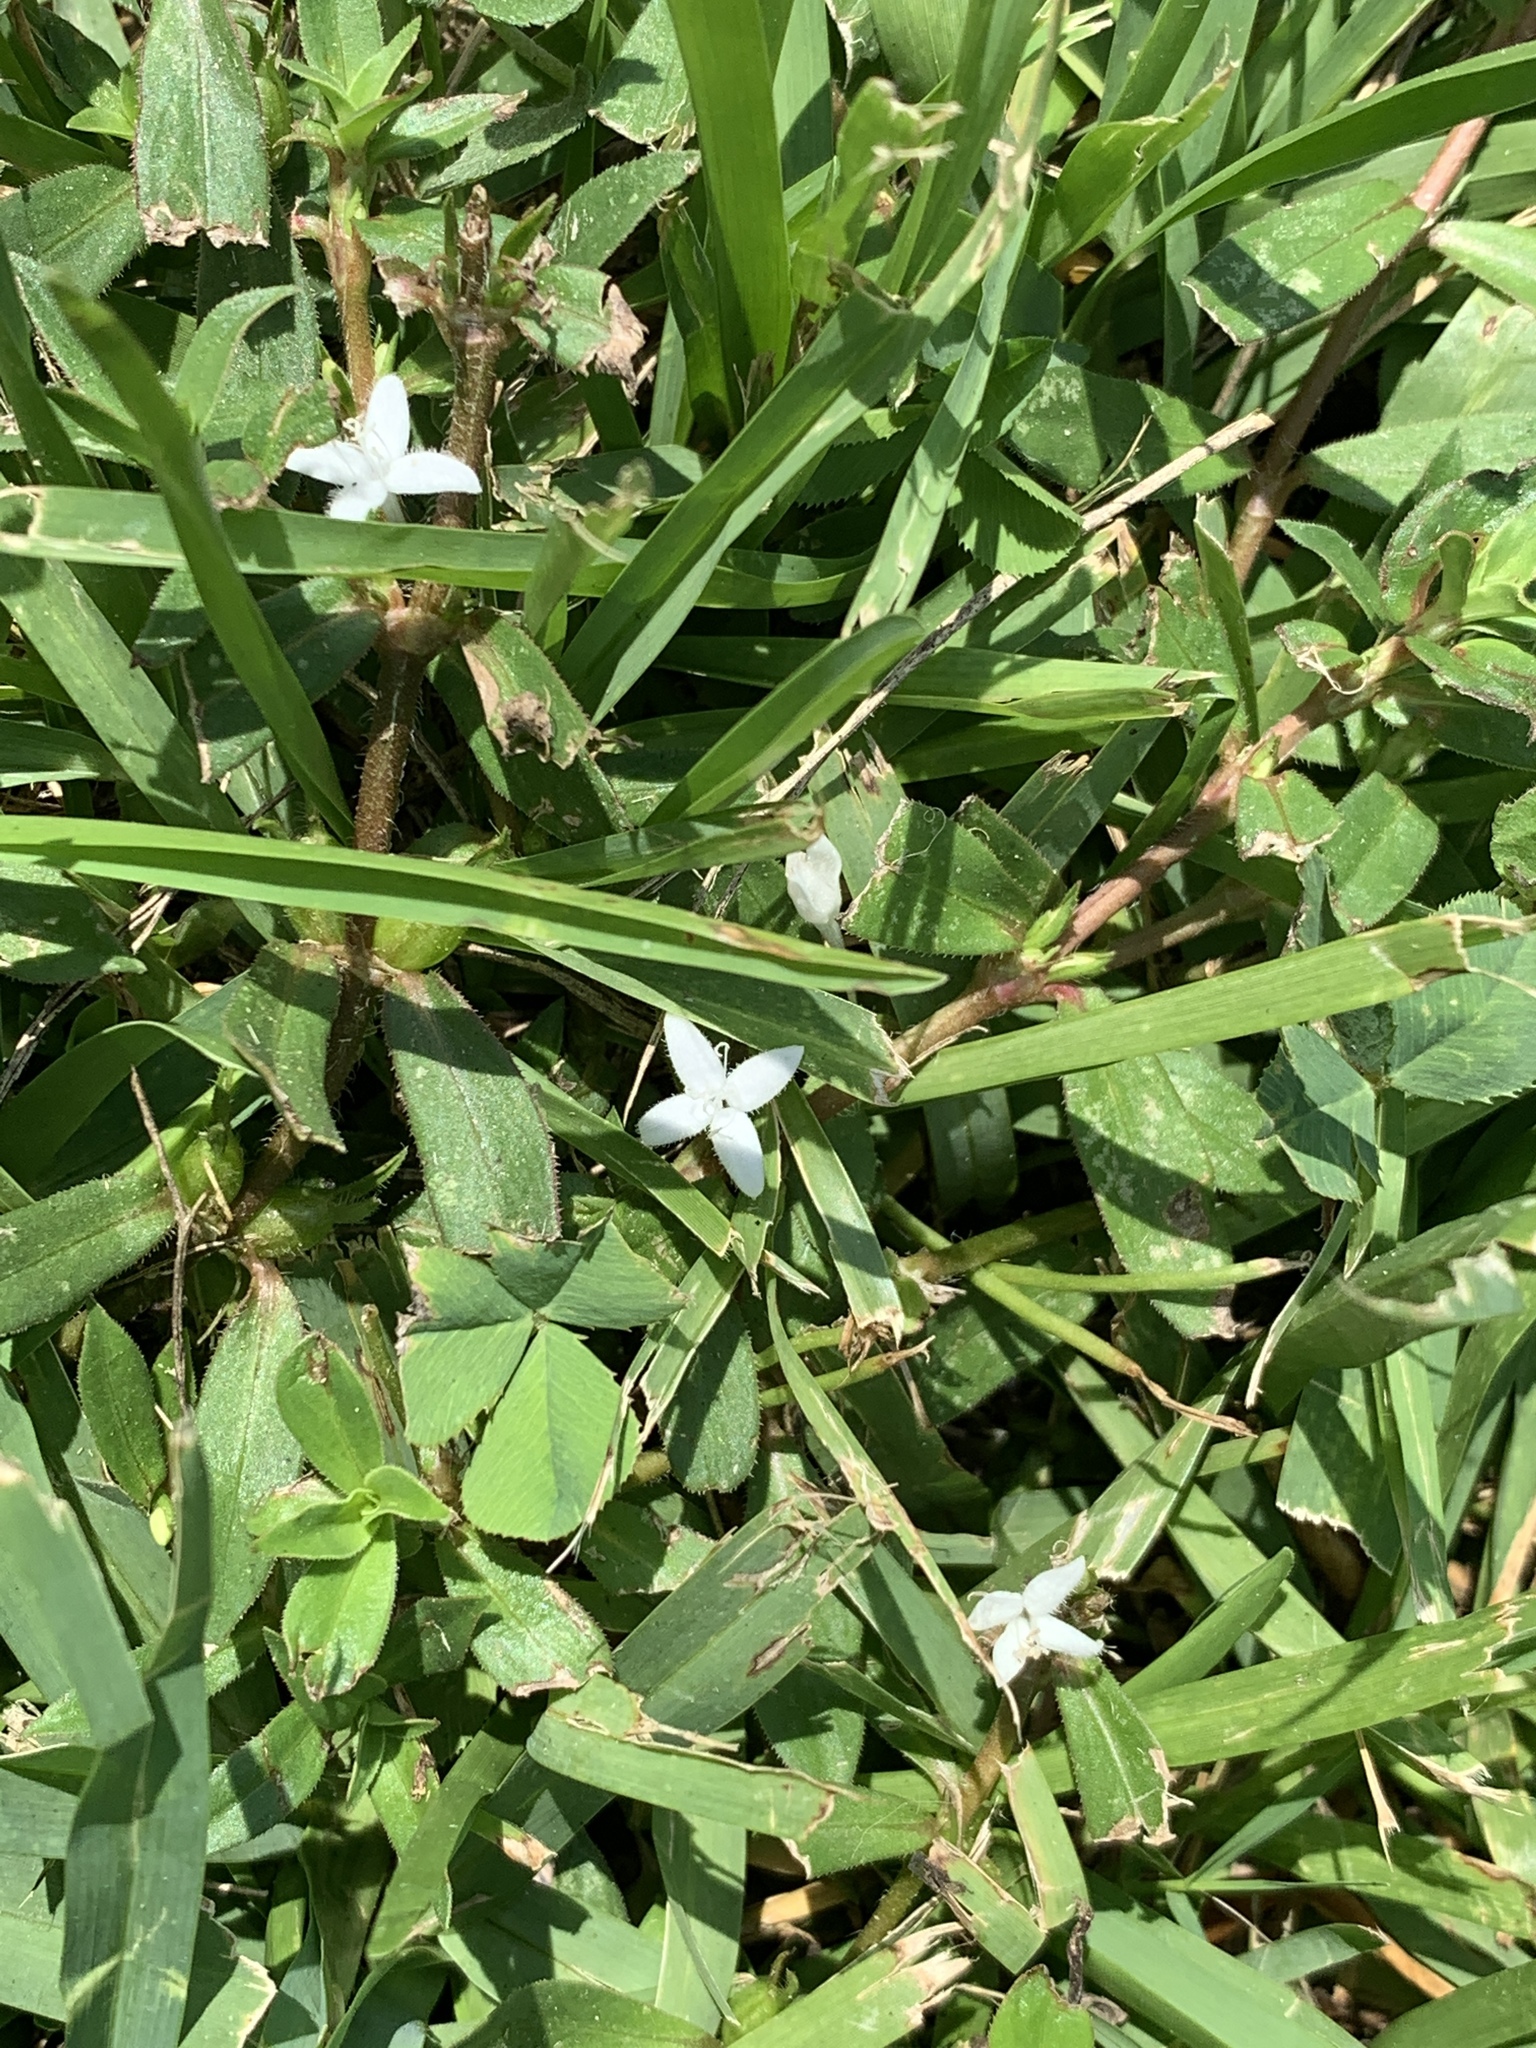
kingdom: Plantae
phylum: Tracheophyta
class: Magnoliopsida
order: Gentianales
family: Rubiaceae
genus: Diodia
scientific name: Diodia virginiana
